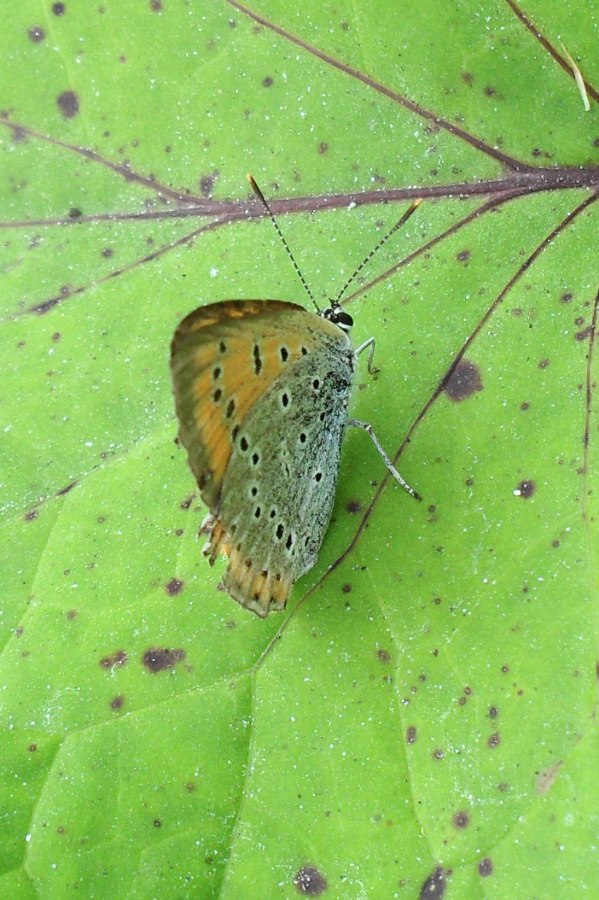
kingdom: Animalia
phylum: Arthropoda
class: Insecta
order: Lepidoptera
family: Lycaenidae
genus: Lycaena
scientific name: Lycaena dispar
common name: Large copper
